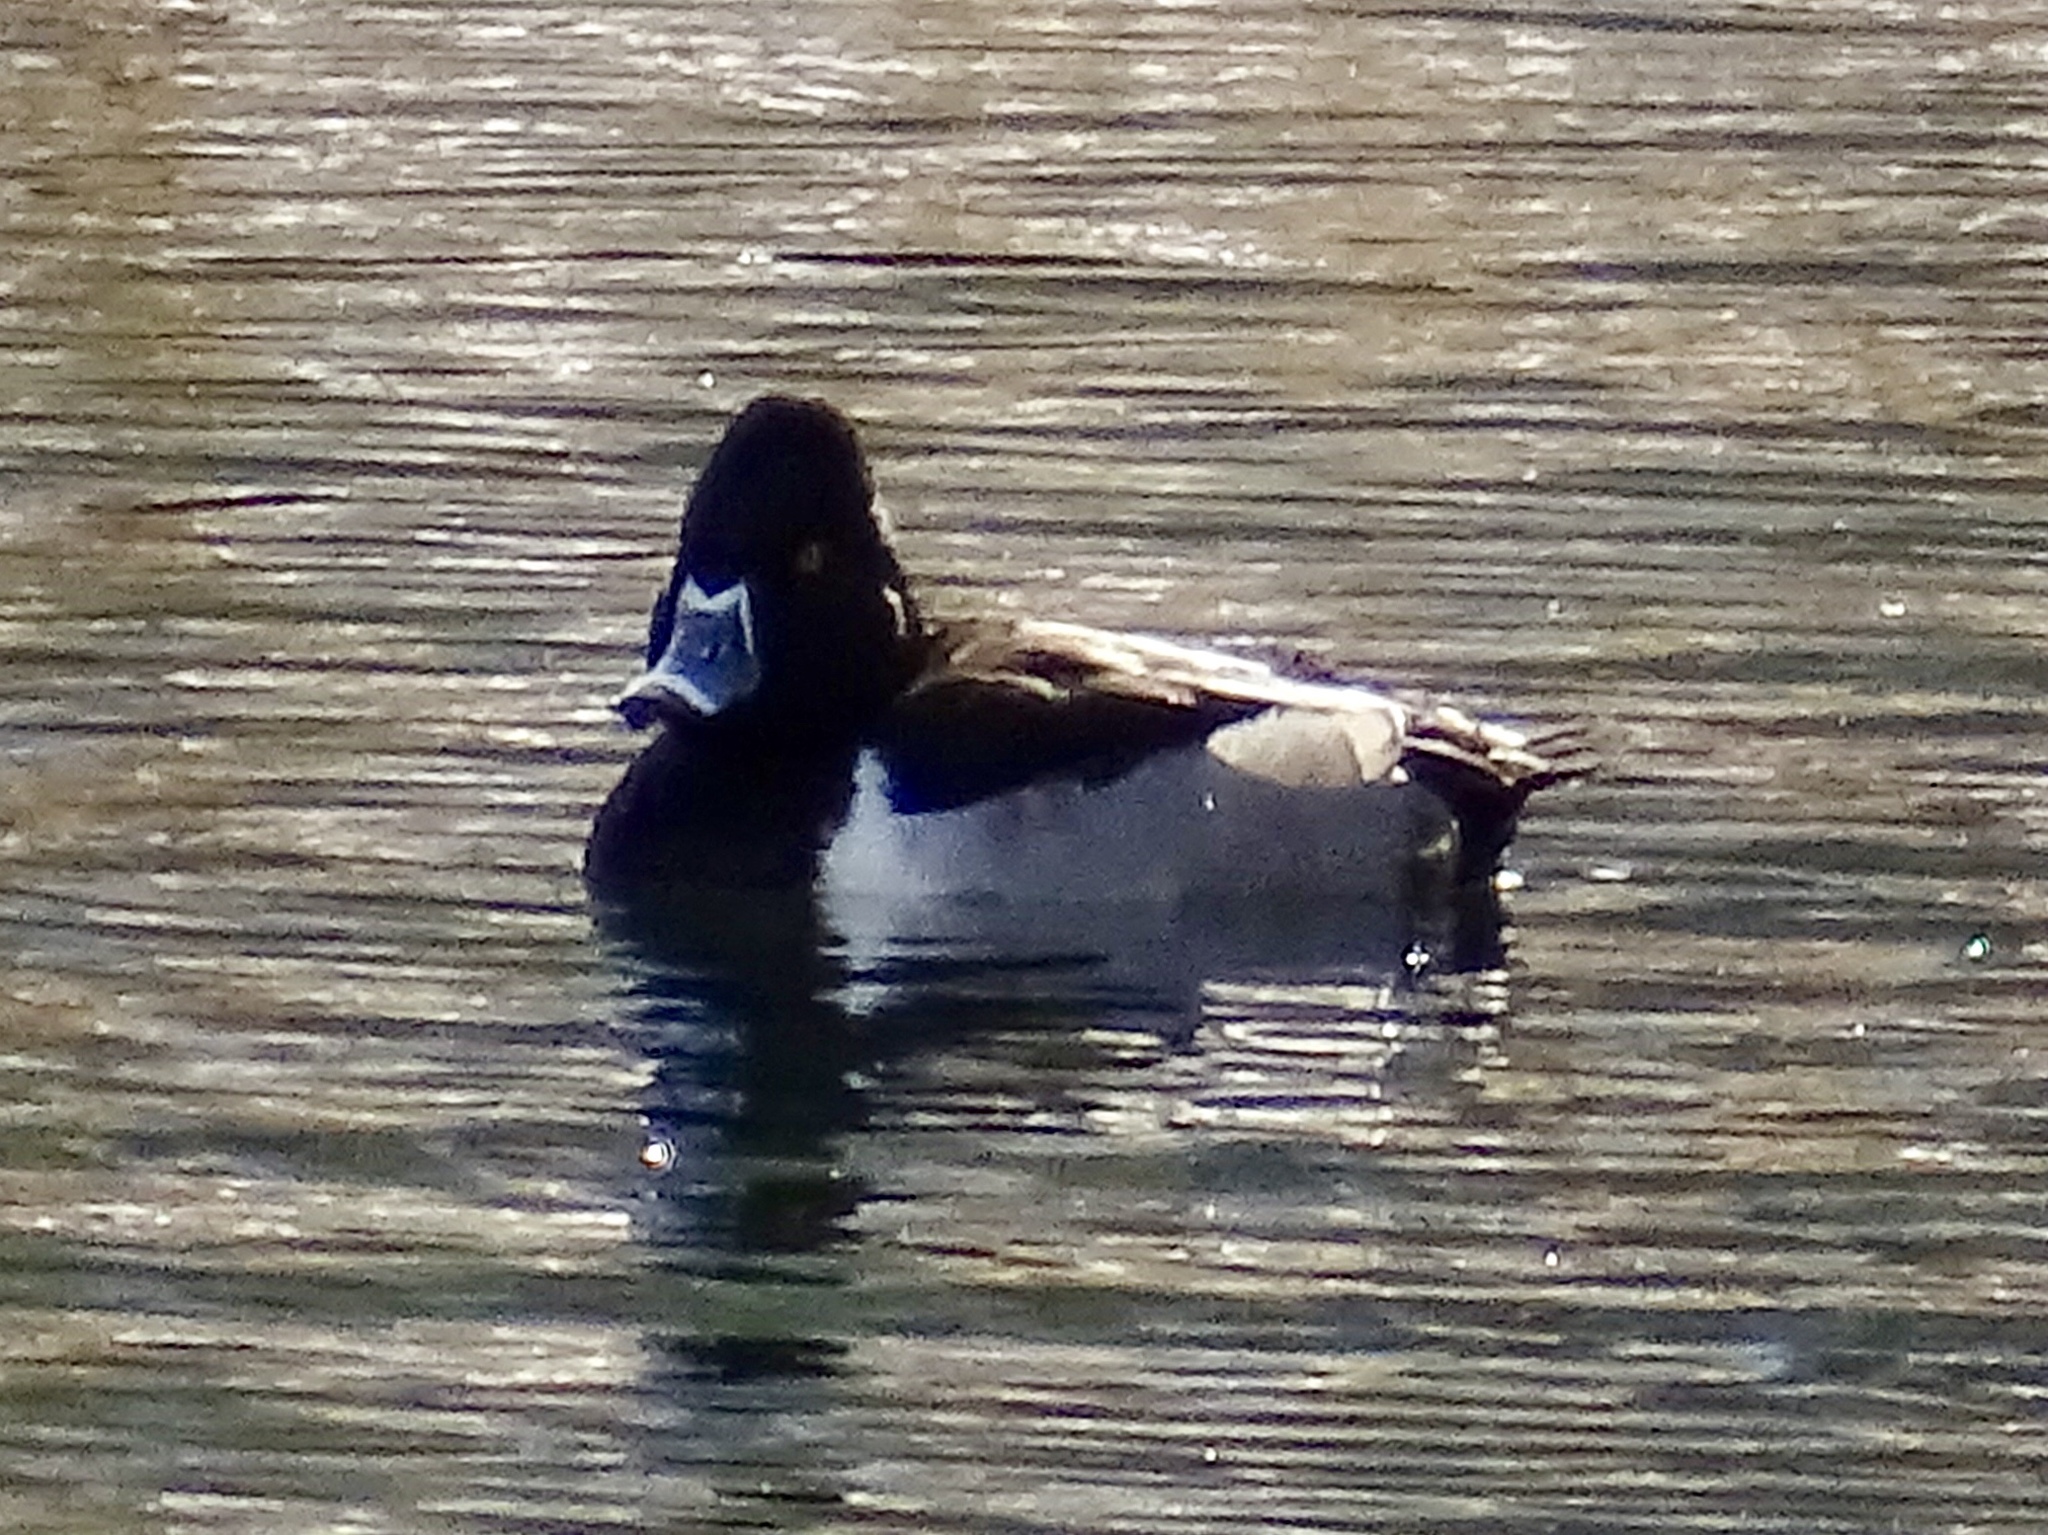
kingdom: Animalia
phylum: Chordata
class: Aves
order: Anseriformes
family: Anatidae
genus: Aythya
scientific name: Aythya collaris
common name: Ring-necked duck
